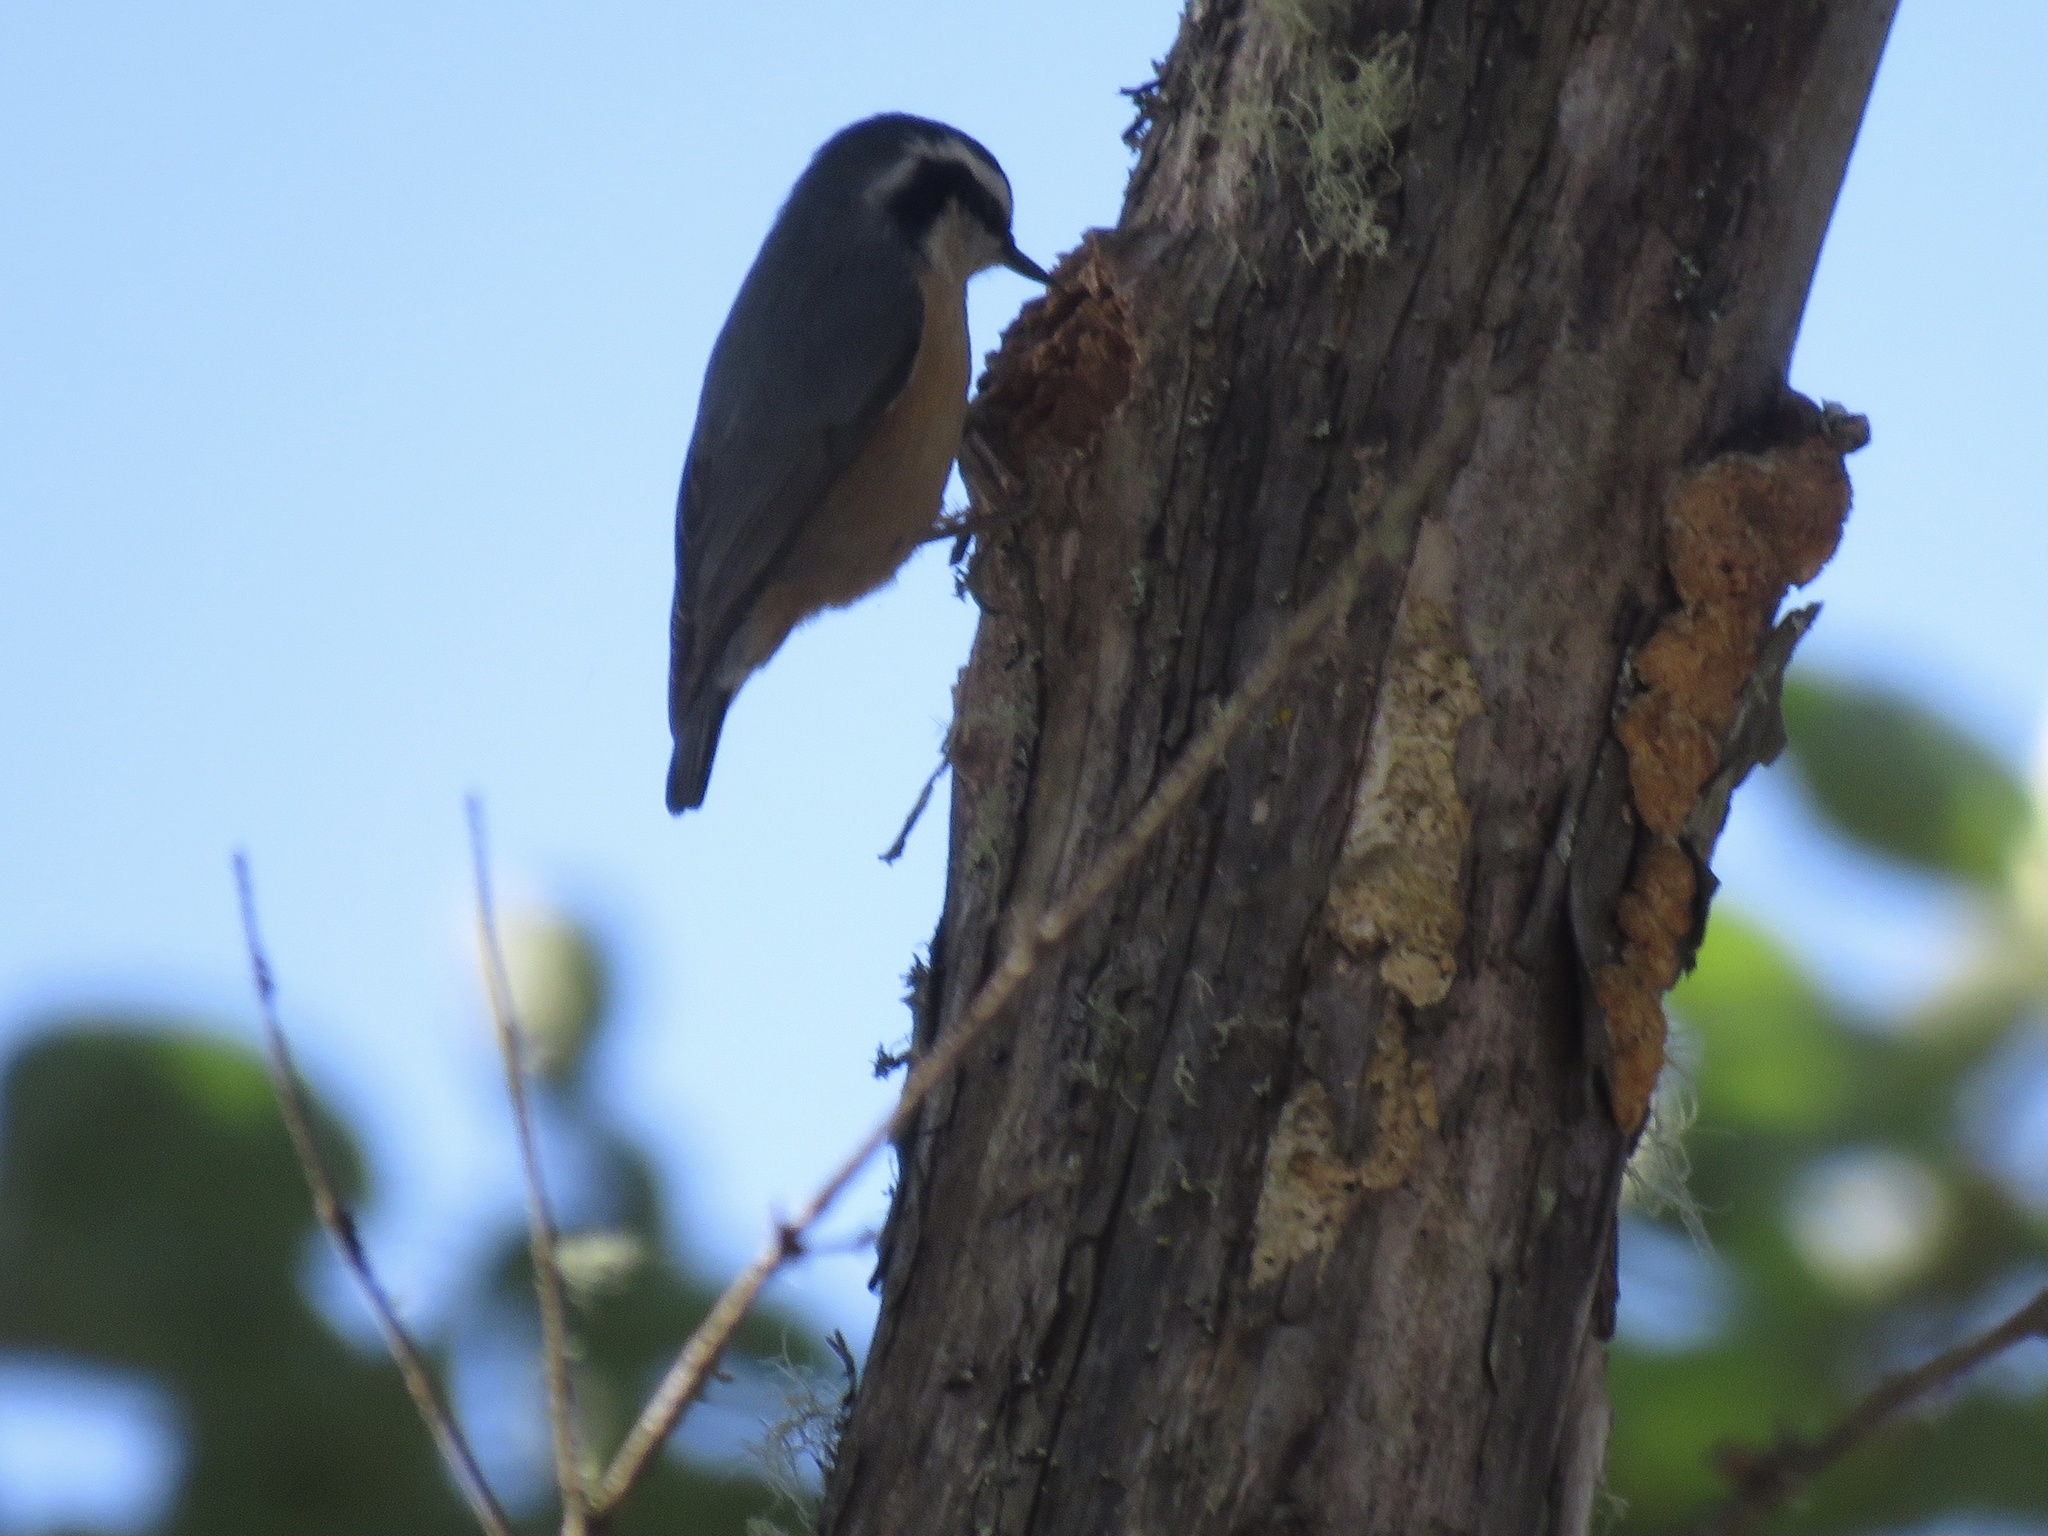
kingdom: Animalia
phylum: Chordata
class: Aves
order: Passeriformes
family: Sittidae
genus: Sitta
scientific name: Sitta canadensis
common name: Red-breasted nuthatch
